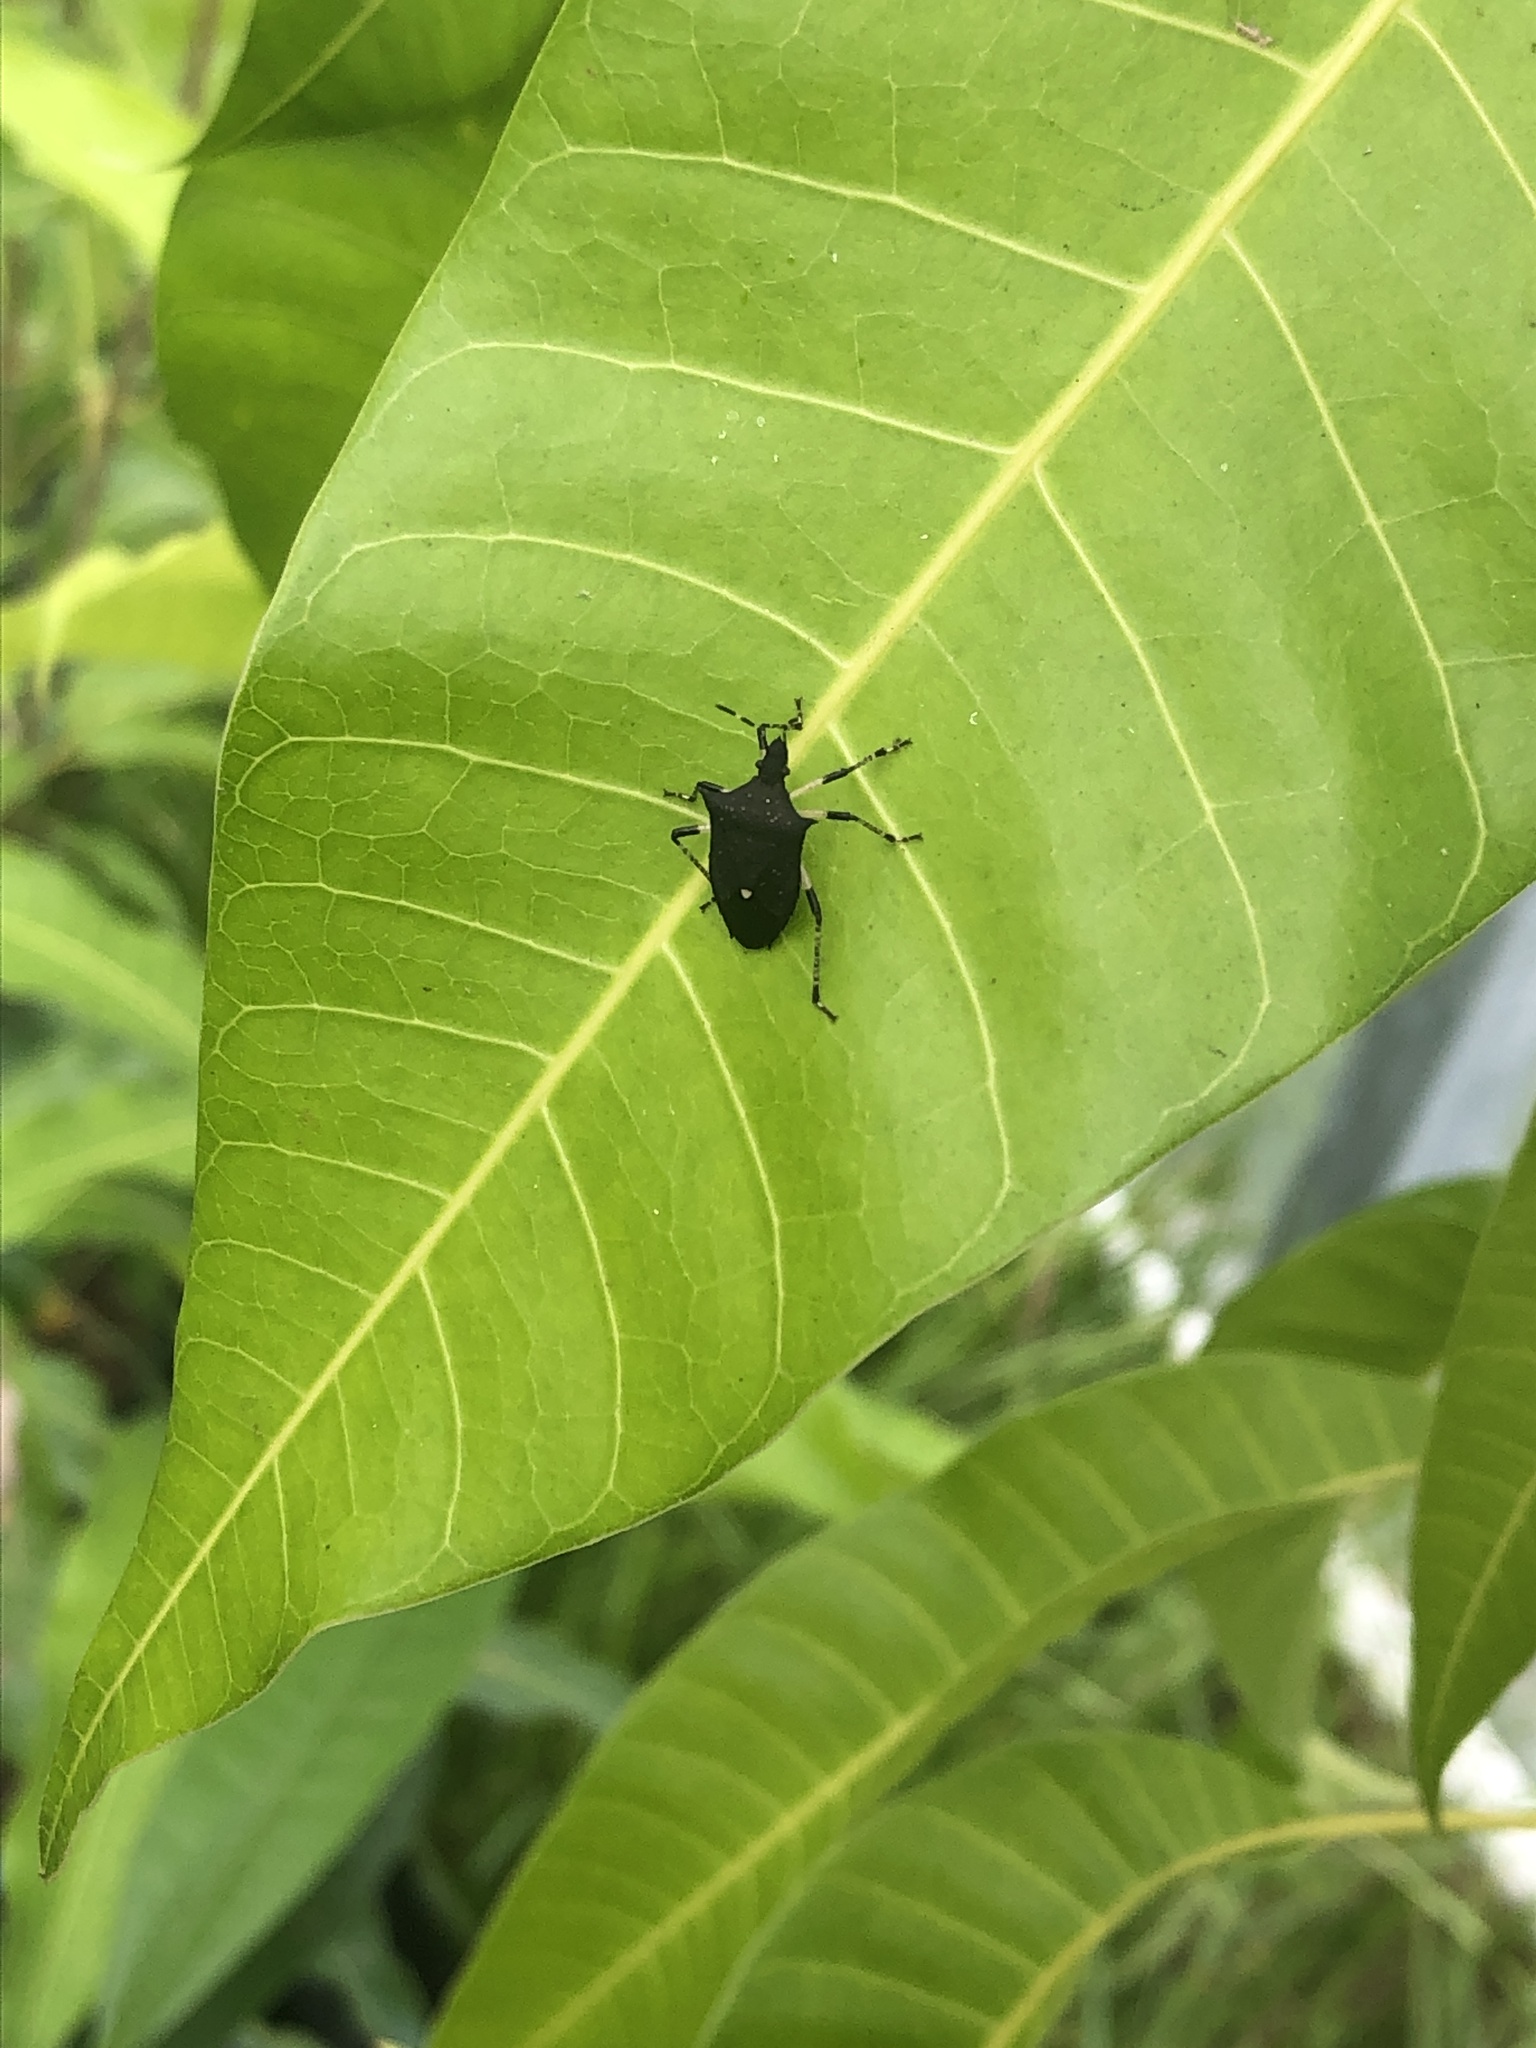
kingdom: Animalia
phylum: Arthropoda
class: Insecta
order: Hemiptera
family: Pentatomidae
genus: Proxys
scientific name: Proxys punctulatus
